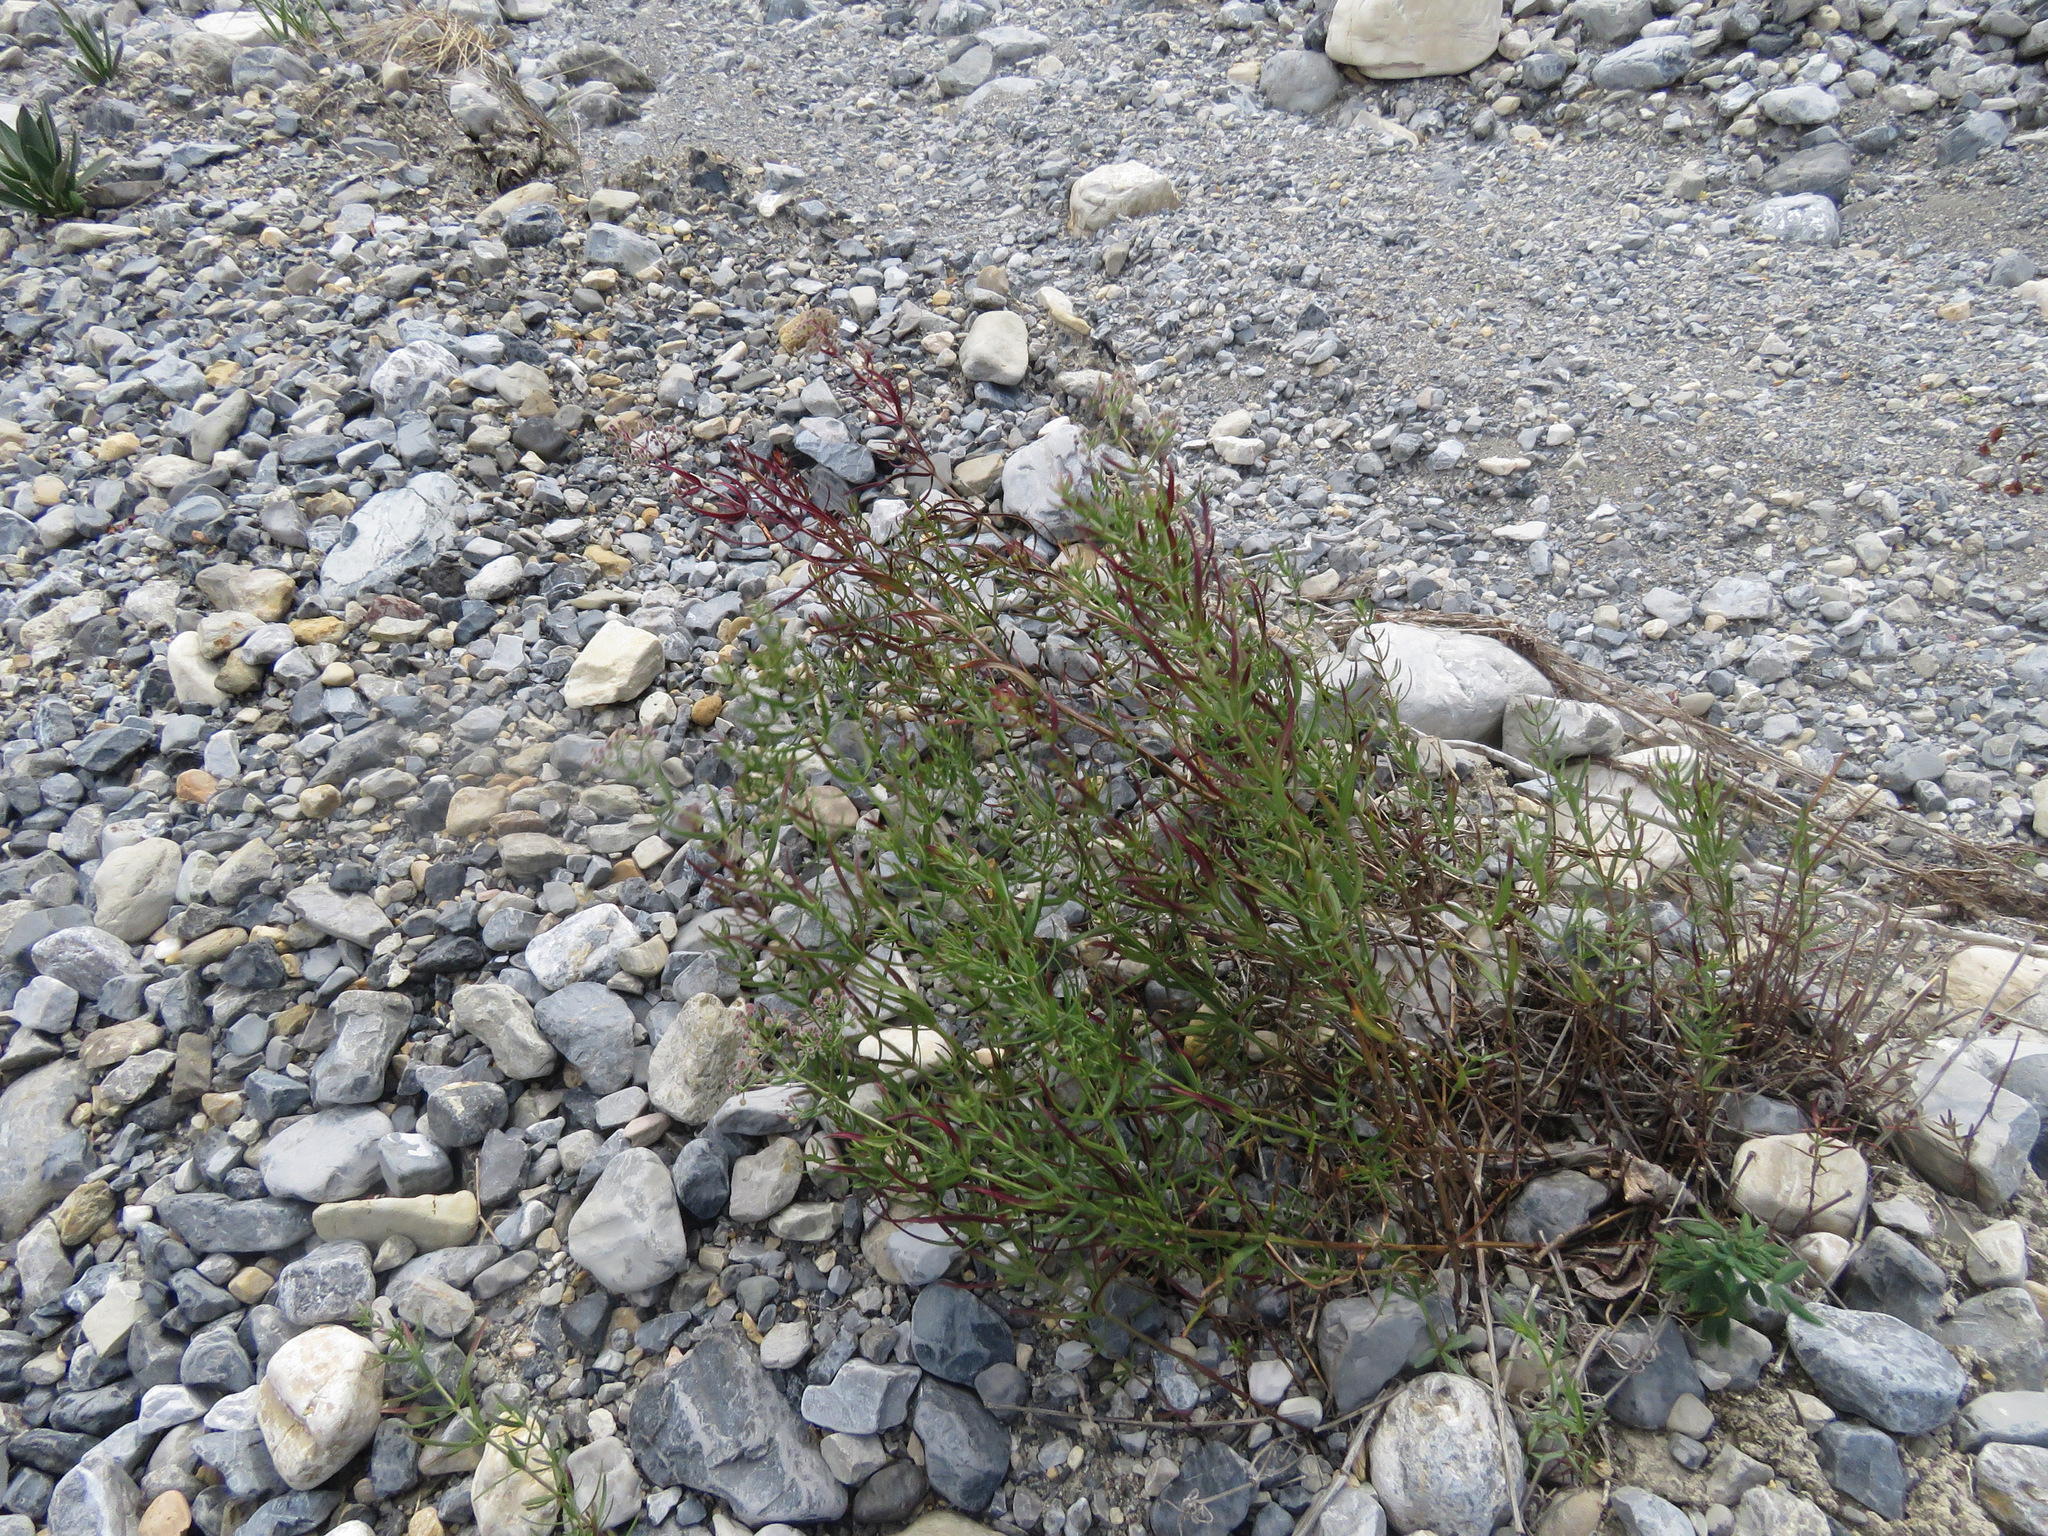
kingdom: Plantae
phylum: Tracheophyta
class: Magnoliopsida
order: Gentianales
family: Rubiaceae
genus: Galium
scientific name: Galium boreale
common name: Northern bedstraw
